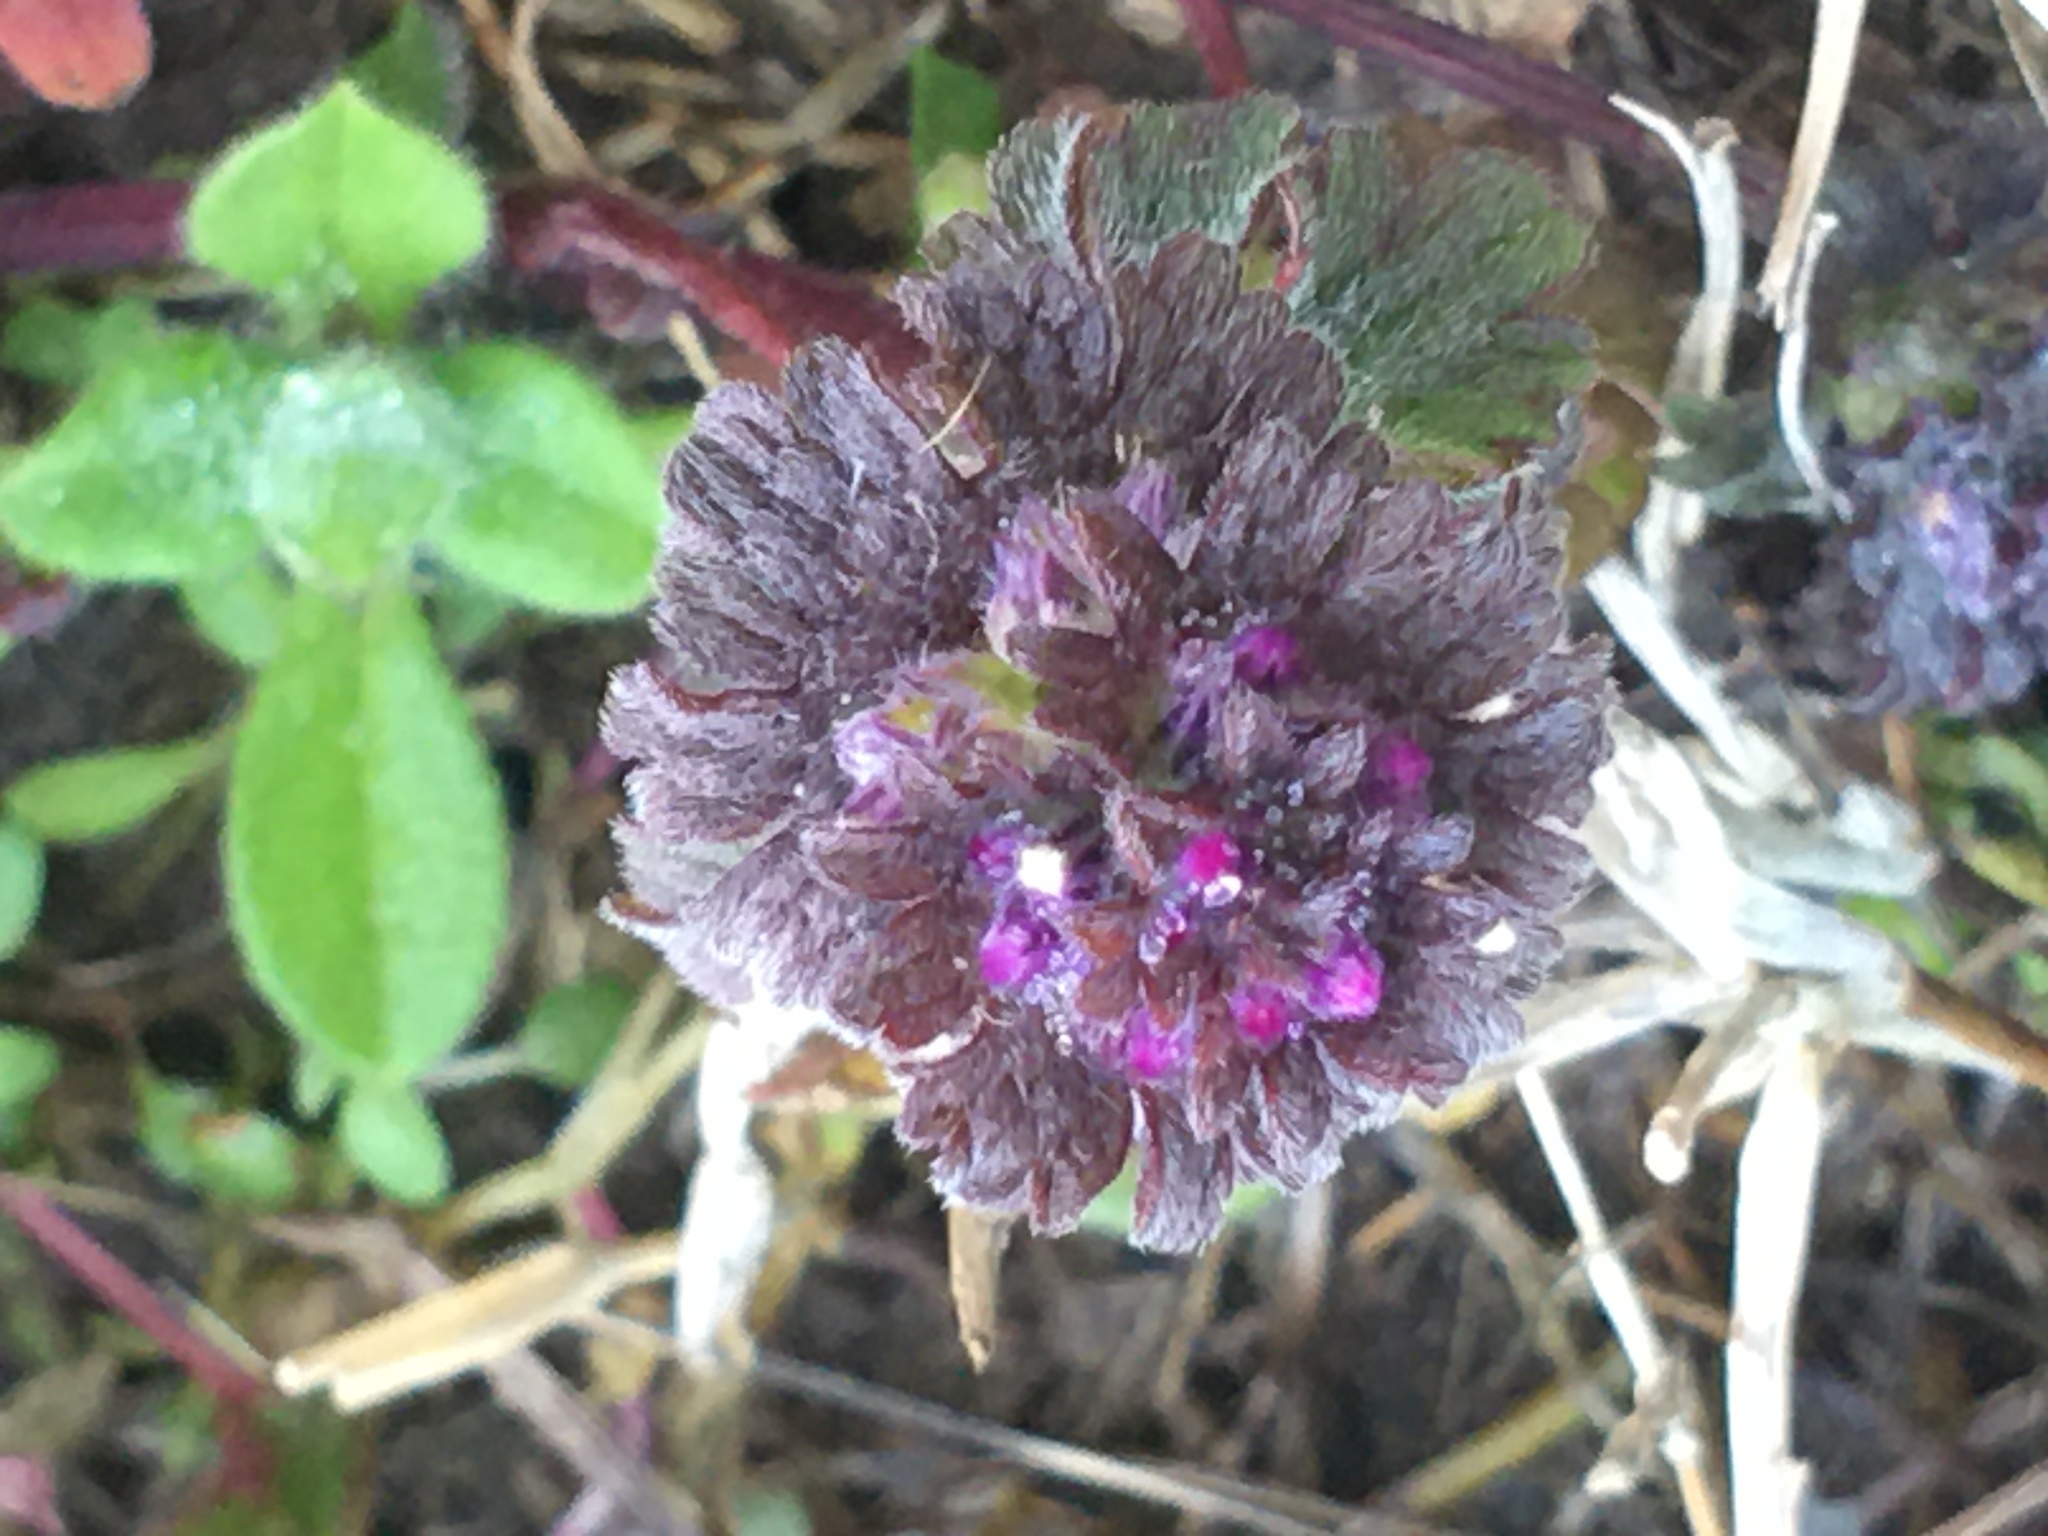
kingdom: Plantae
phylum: Tracheophyta
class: Magnoliopsida
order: Lamiales
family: Lamiaceae
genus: Lamium
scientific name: Lamium amplexicaule
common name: Henbit dead-nettle
